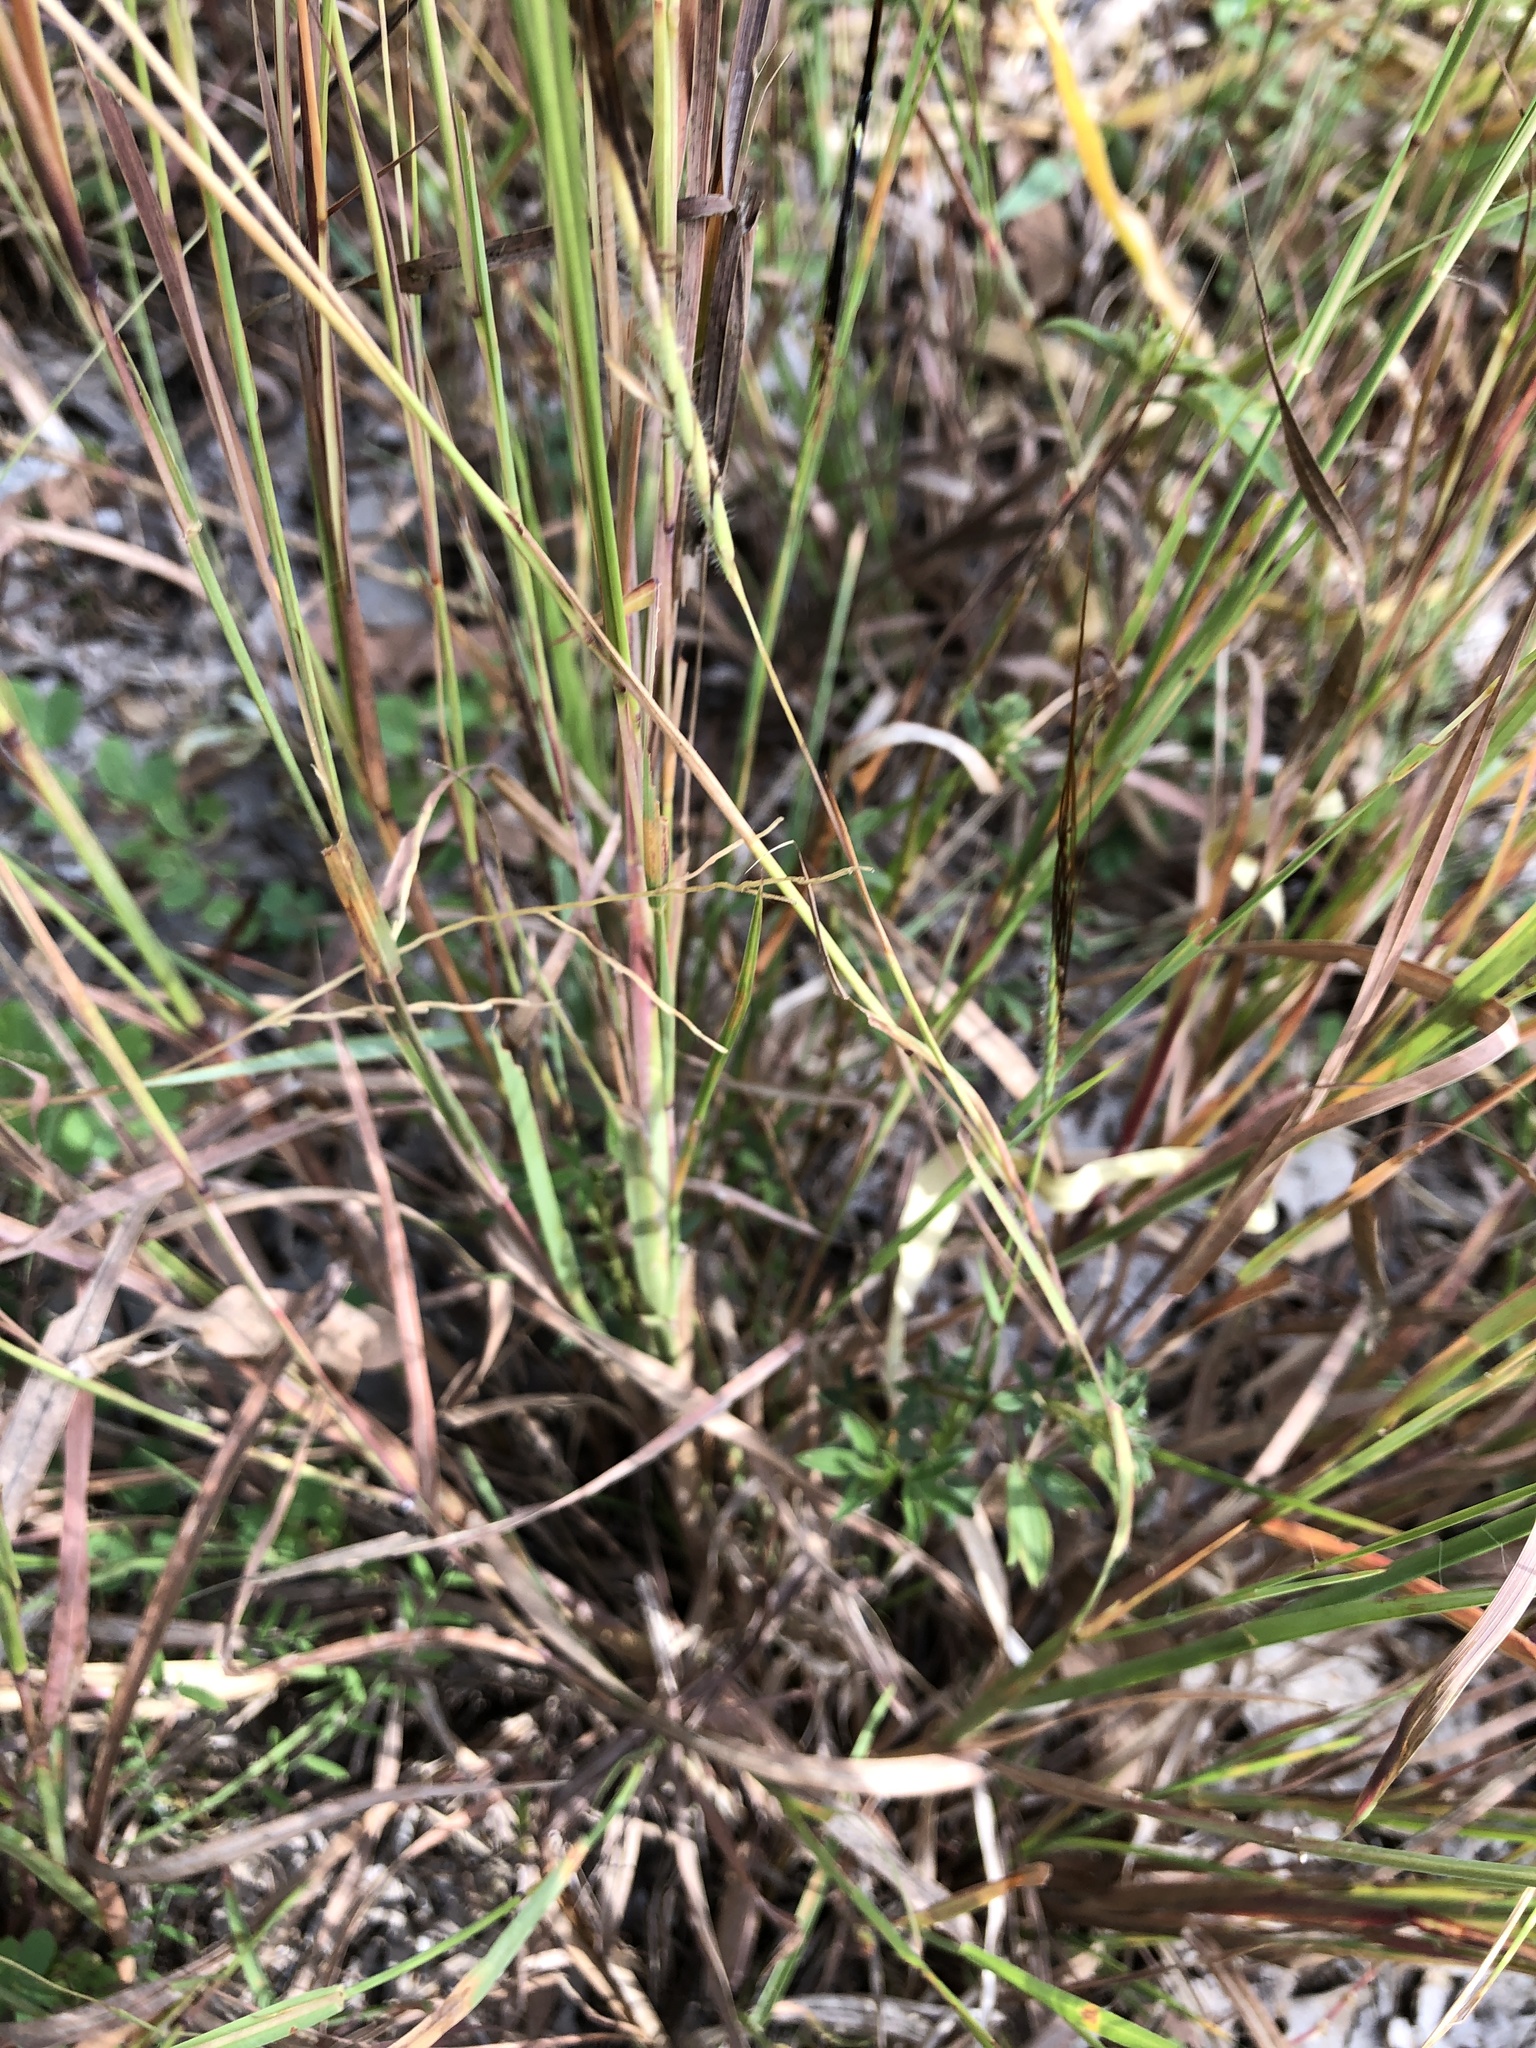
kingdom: Plantae
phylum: Tracheophyta
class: Liliopsida
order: Poales
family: Poaceae
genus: Heteropogon
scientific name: Heteropogon contortus
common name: Tanglehead
